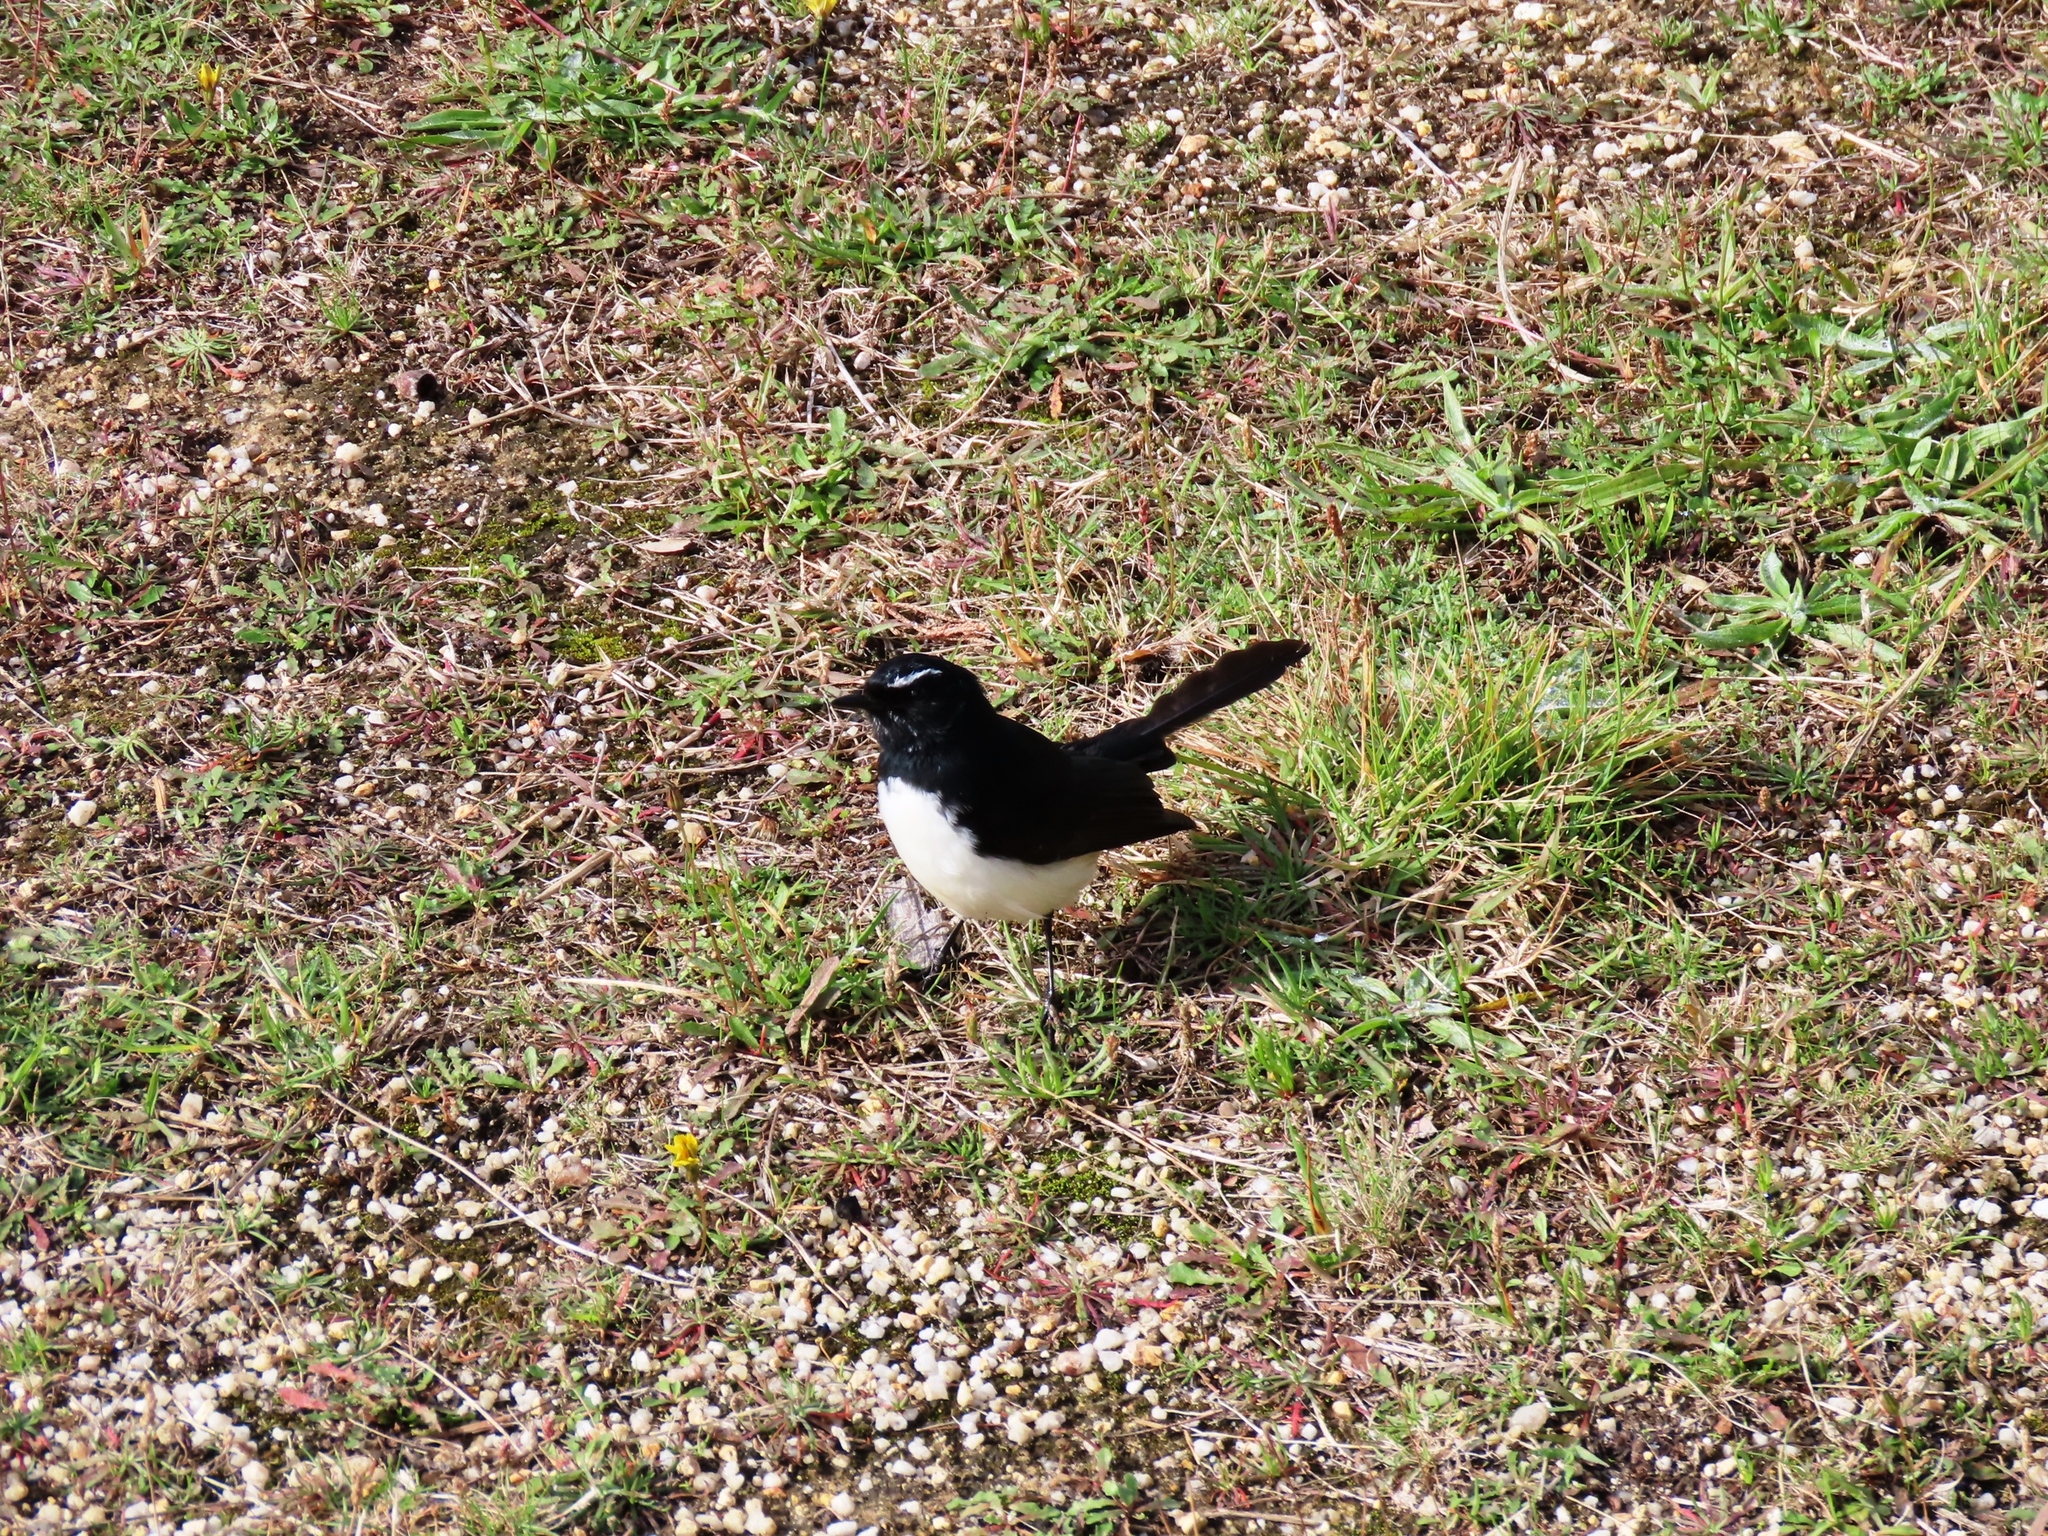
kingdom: Animalia
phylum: Chordata
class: Aves
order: Passeriformes
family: Rhipiduridae
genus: Rhipidura
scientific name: Rhipidura leucophrys
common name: Willie wagtail
